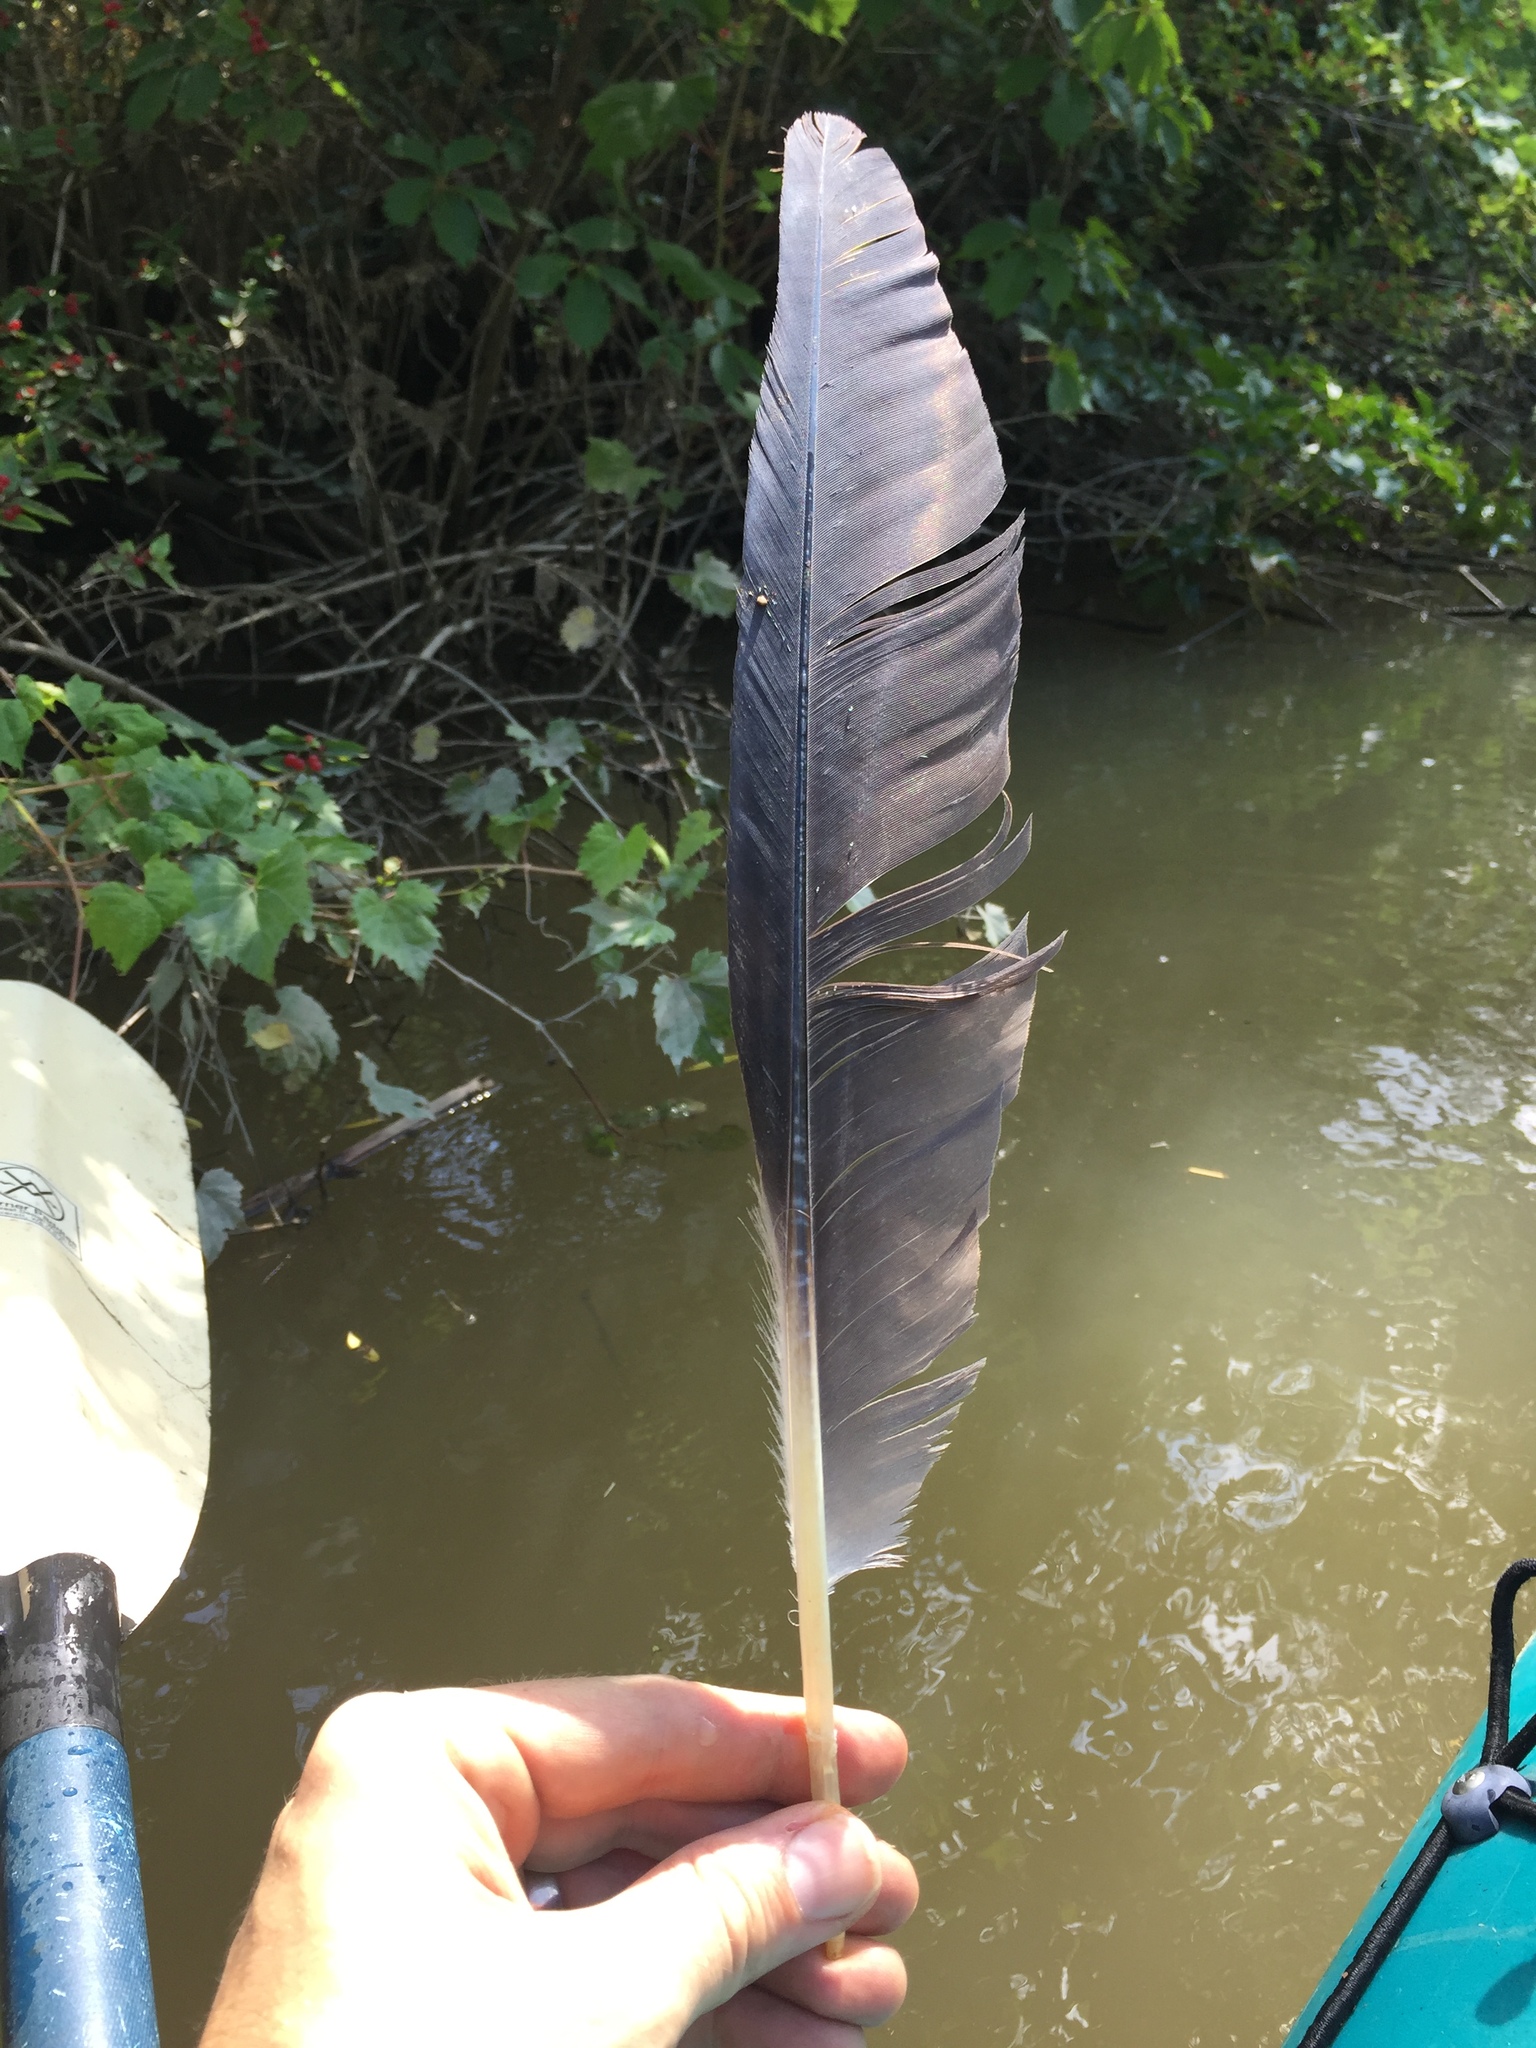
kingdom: Animalia
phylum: Chordata
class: Aves
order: Pelecaniformes
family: Ardeidae
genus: Ardea
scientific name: Ardea herodias
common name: Great blue heron
